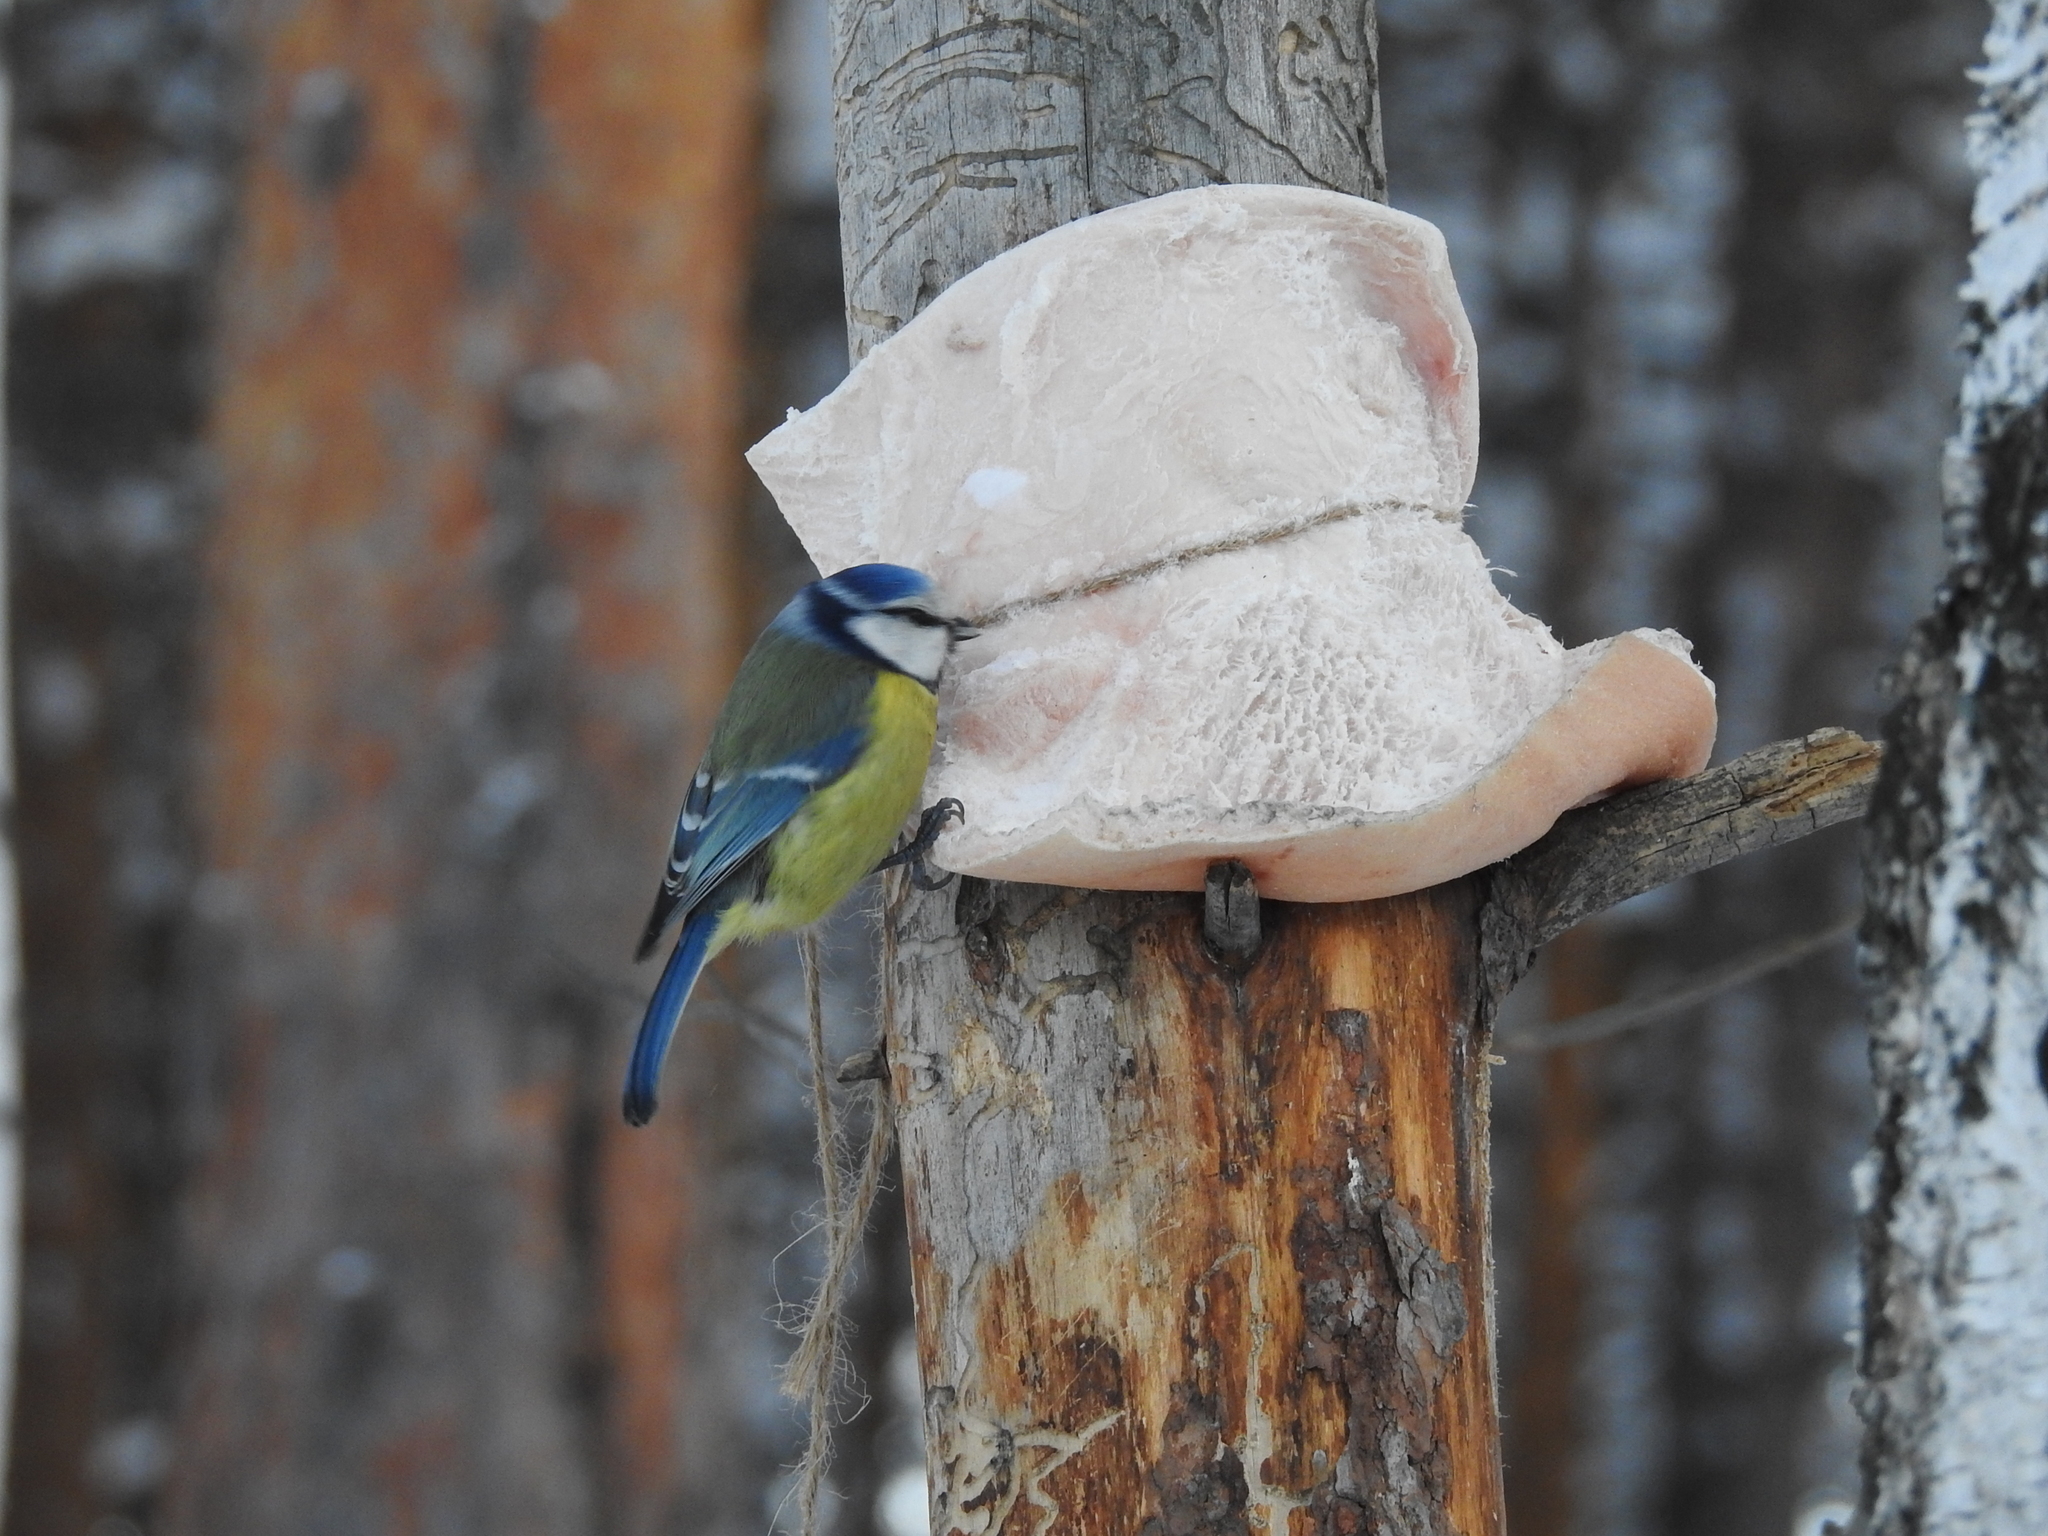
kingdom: Animalia
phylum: Chordata
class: Aves
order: Passeriformes
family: Paridae
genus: Cyanistes
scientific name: Cyanistes caeruleus
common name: Eurasian blue tit
